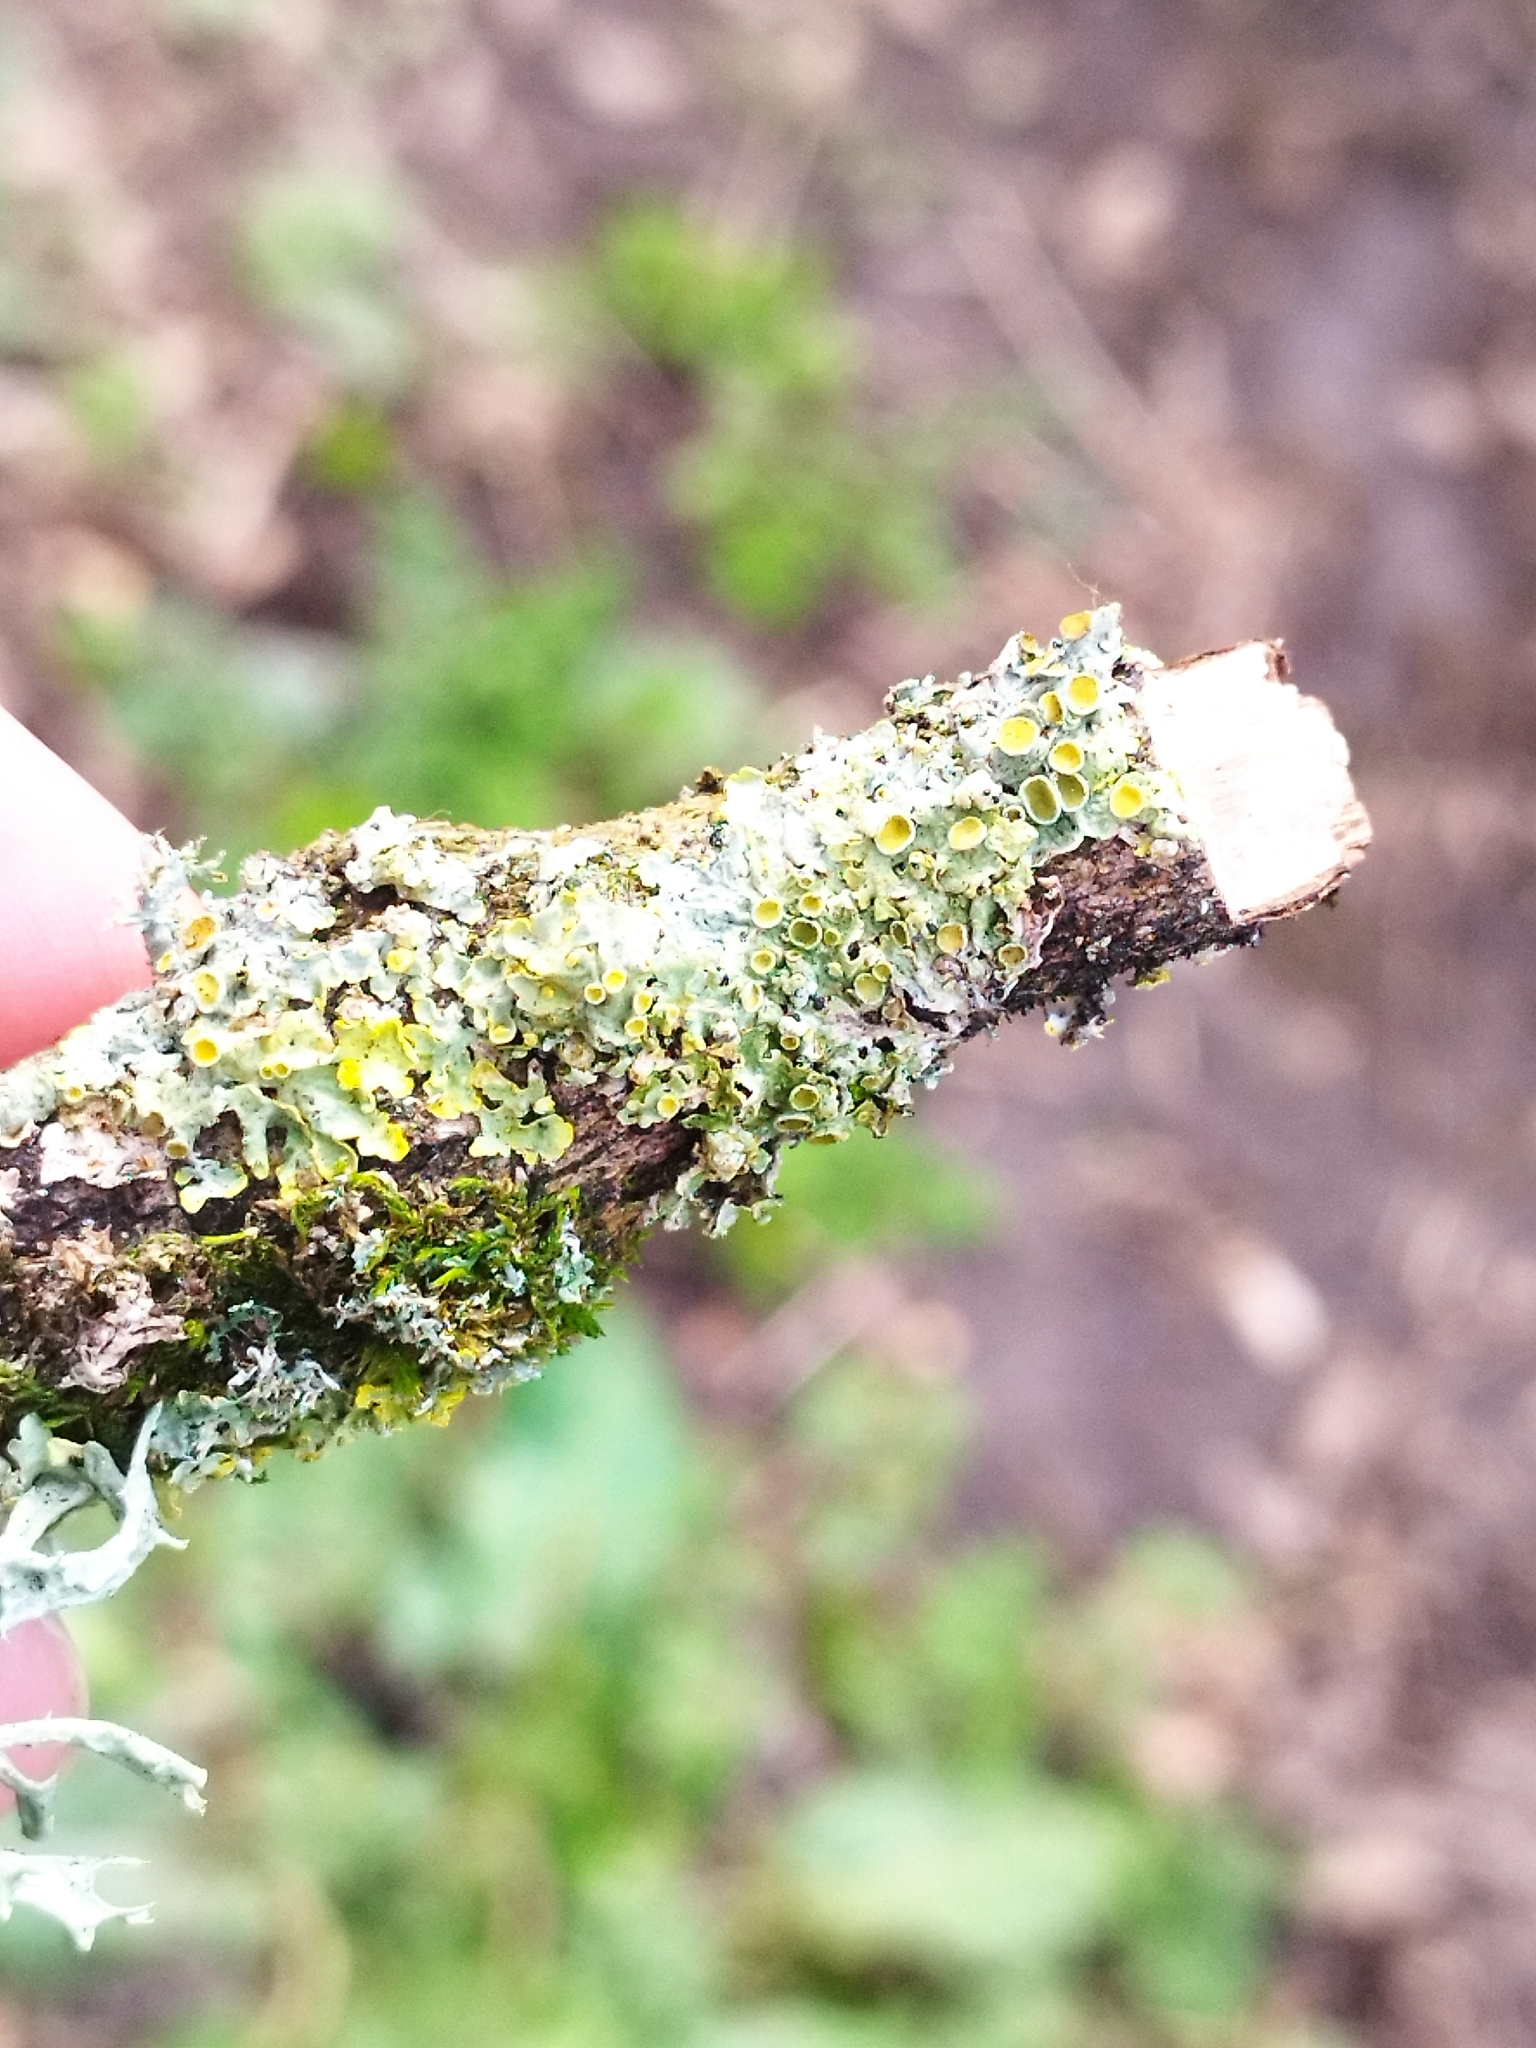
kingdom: Fungi
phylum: Ascomycota
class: Lecanoromycetes
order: Teloschistales
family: Teloschistaceae
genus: Xanthoria
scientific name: Xanthoria parietina
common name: Common orange lichen
